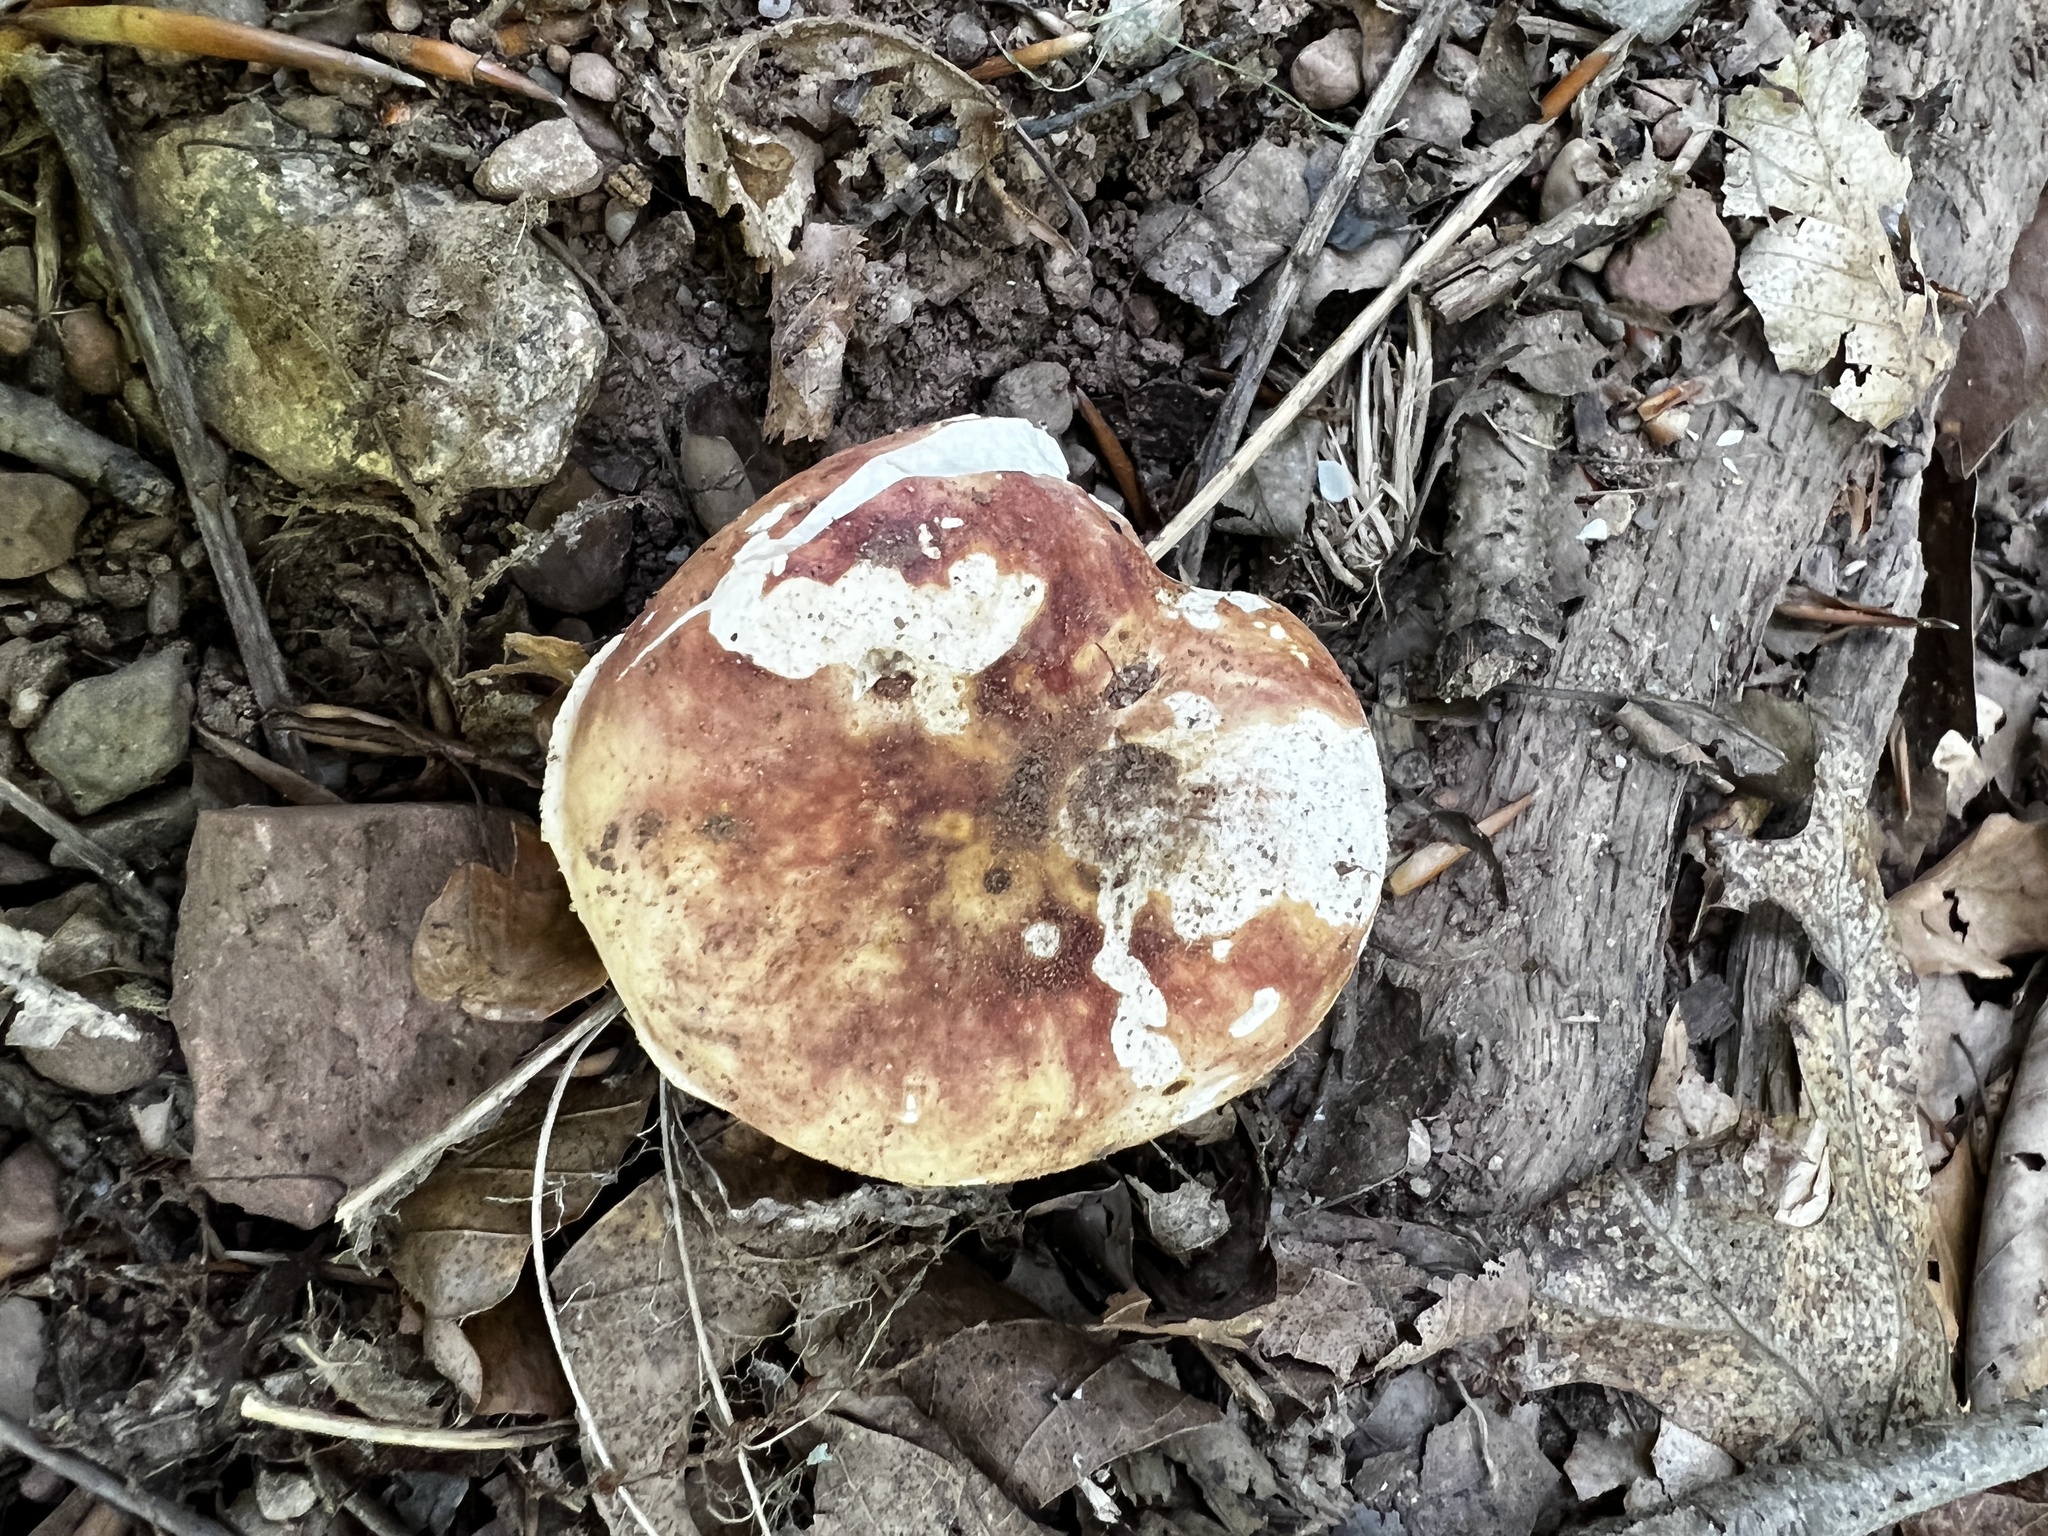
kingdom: Fungi
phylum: Basidiomycota
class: Agaricomycetes
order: Russulales
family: Russulaceae
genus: Russula
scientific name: Russula flavisiccans
